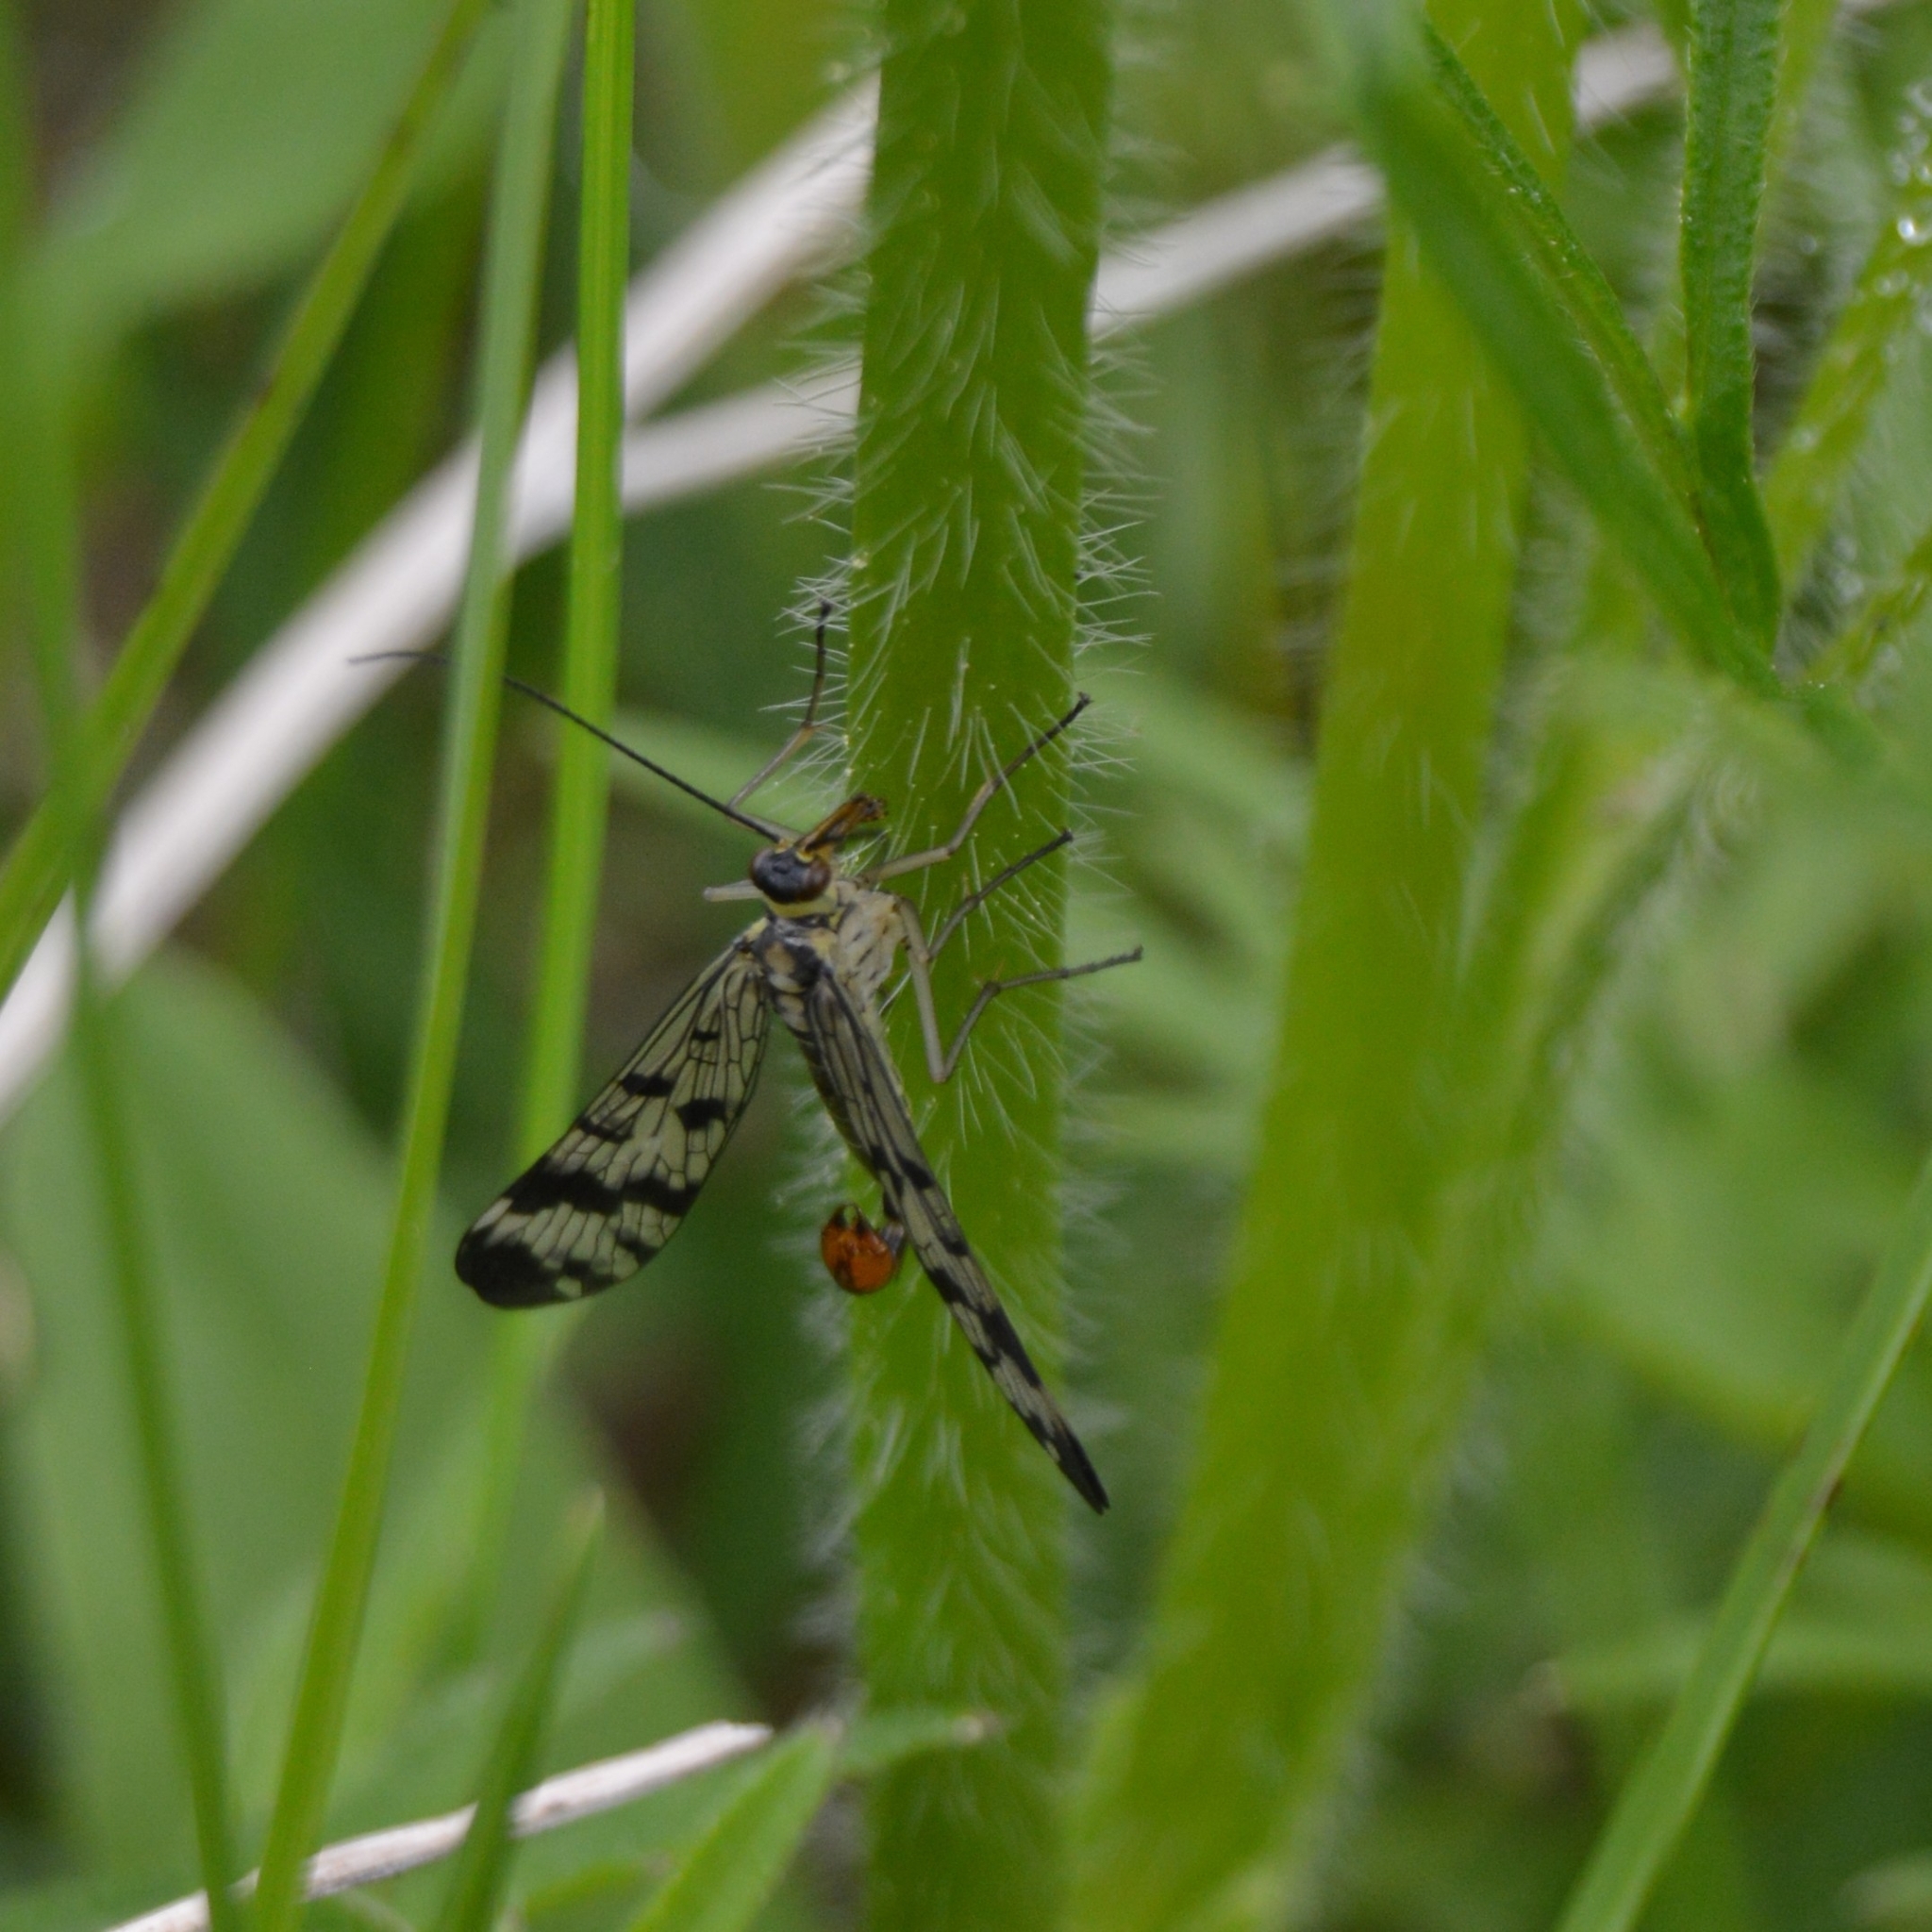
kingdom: Animalia
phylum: Arthropoda
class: Insecta
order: Mecoptera
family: Panorpidae
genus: Panorpa
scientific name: Panorpa communis
